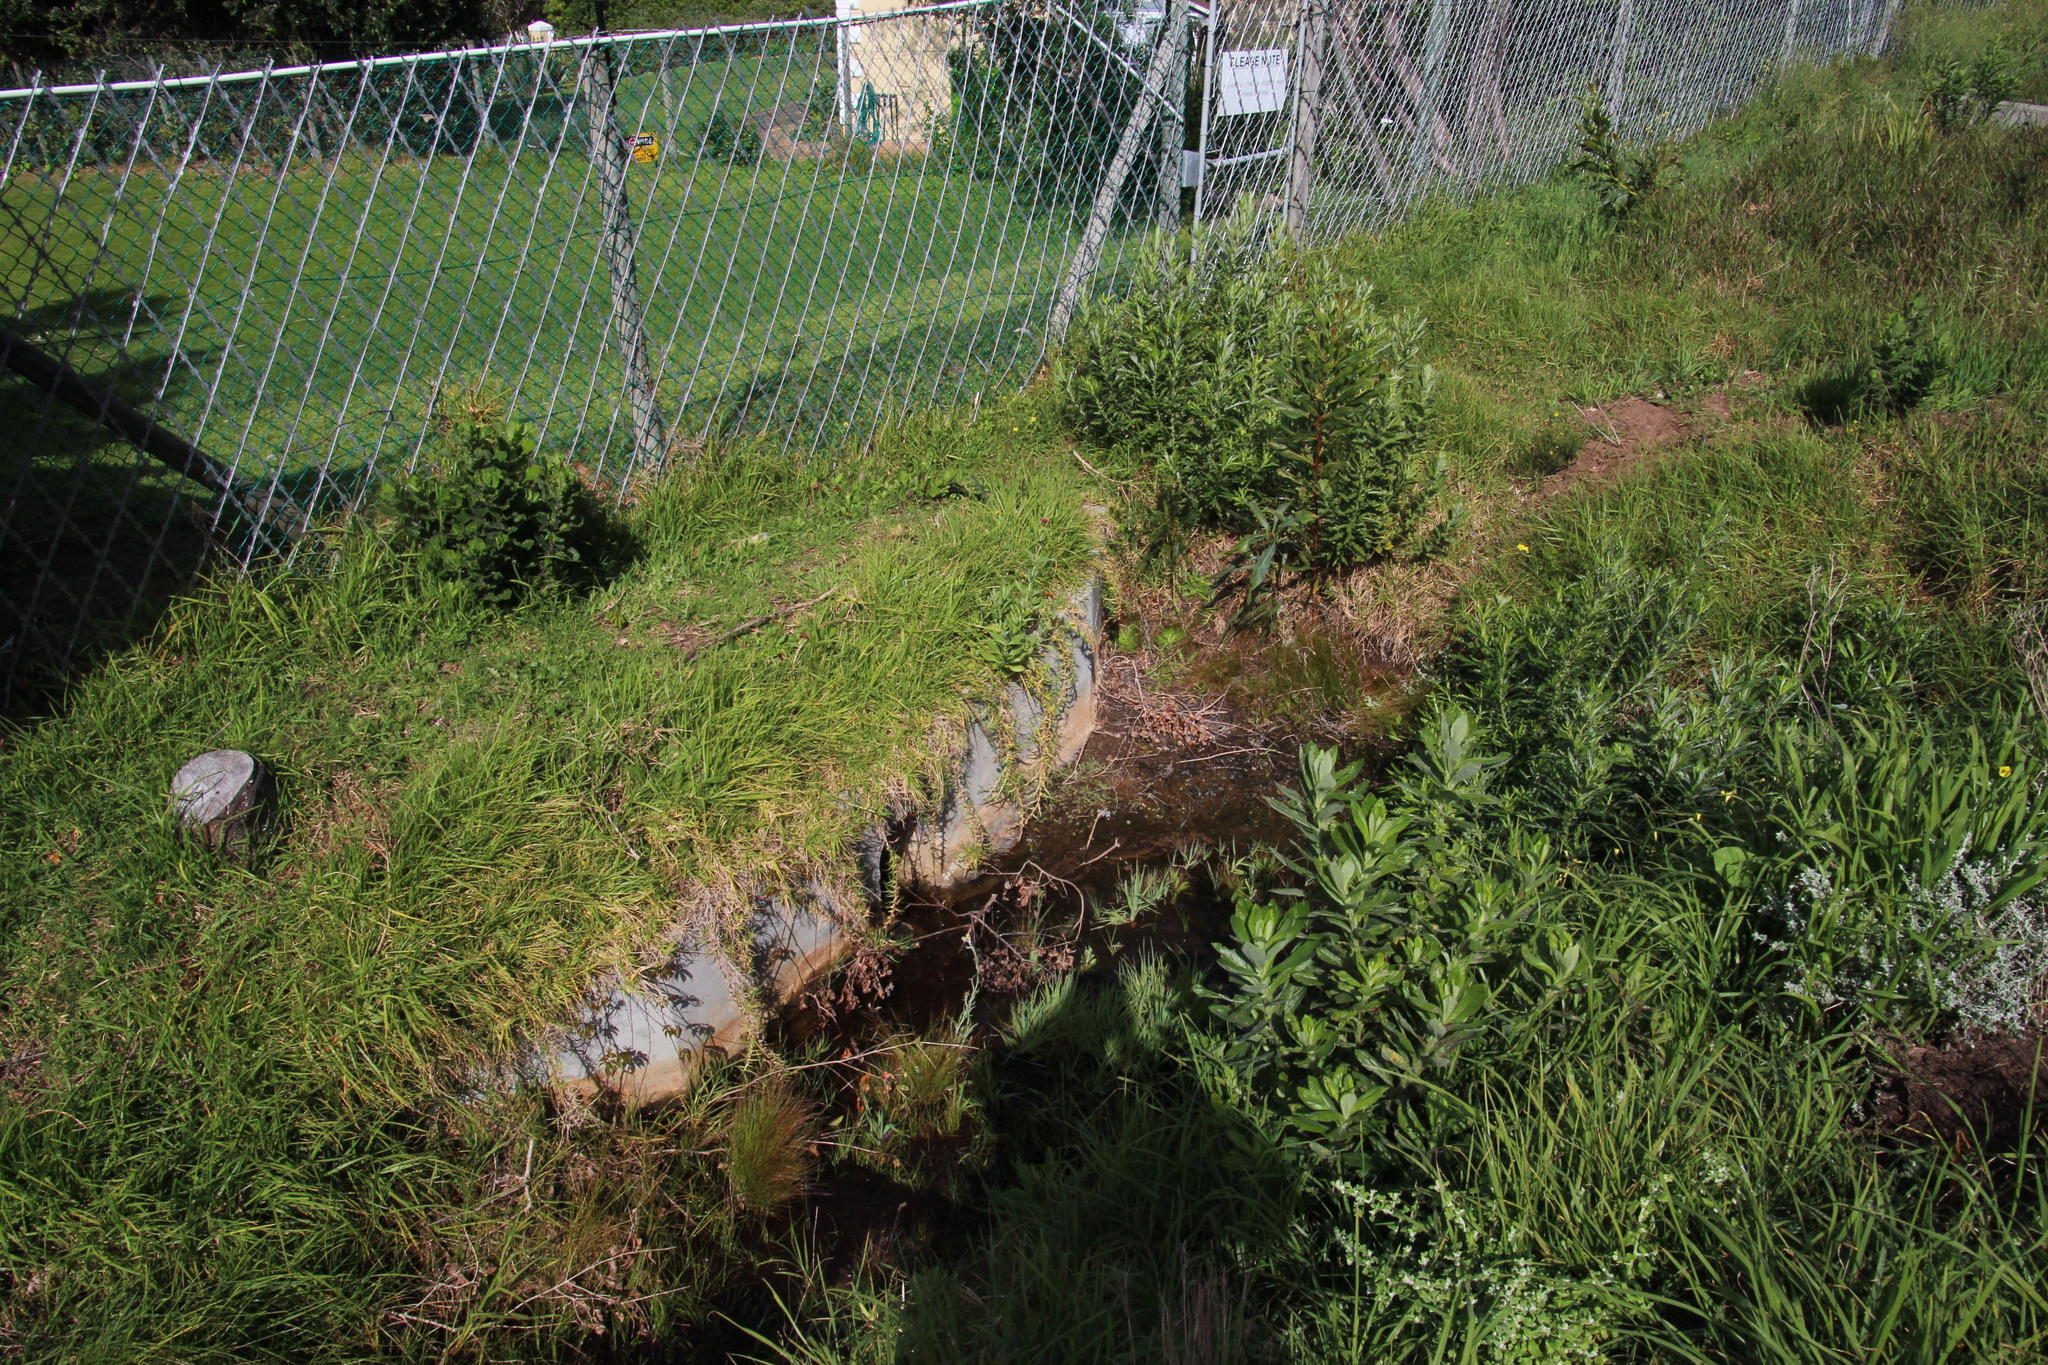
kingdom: Plantae
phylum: Tracheophyta
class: Magnoliopsida
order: Dipsacales
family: Caprifoliaceae
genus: Centranthus
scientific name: Centranthus ruber
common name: Red valerian
